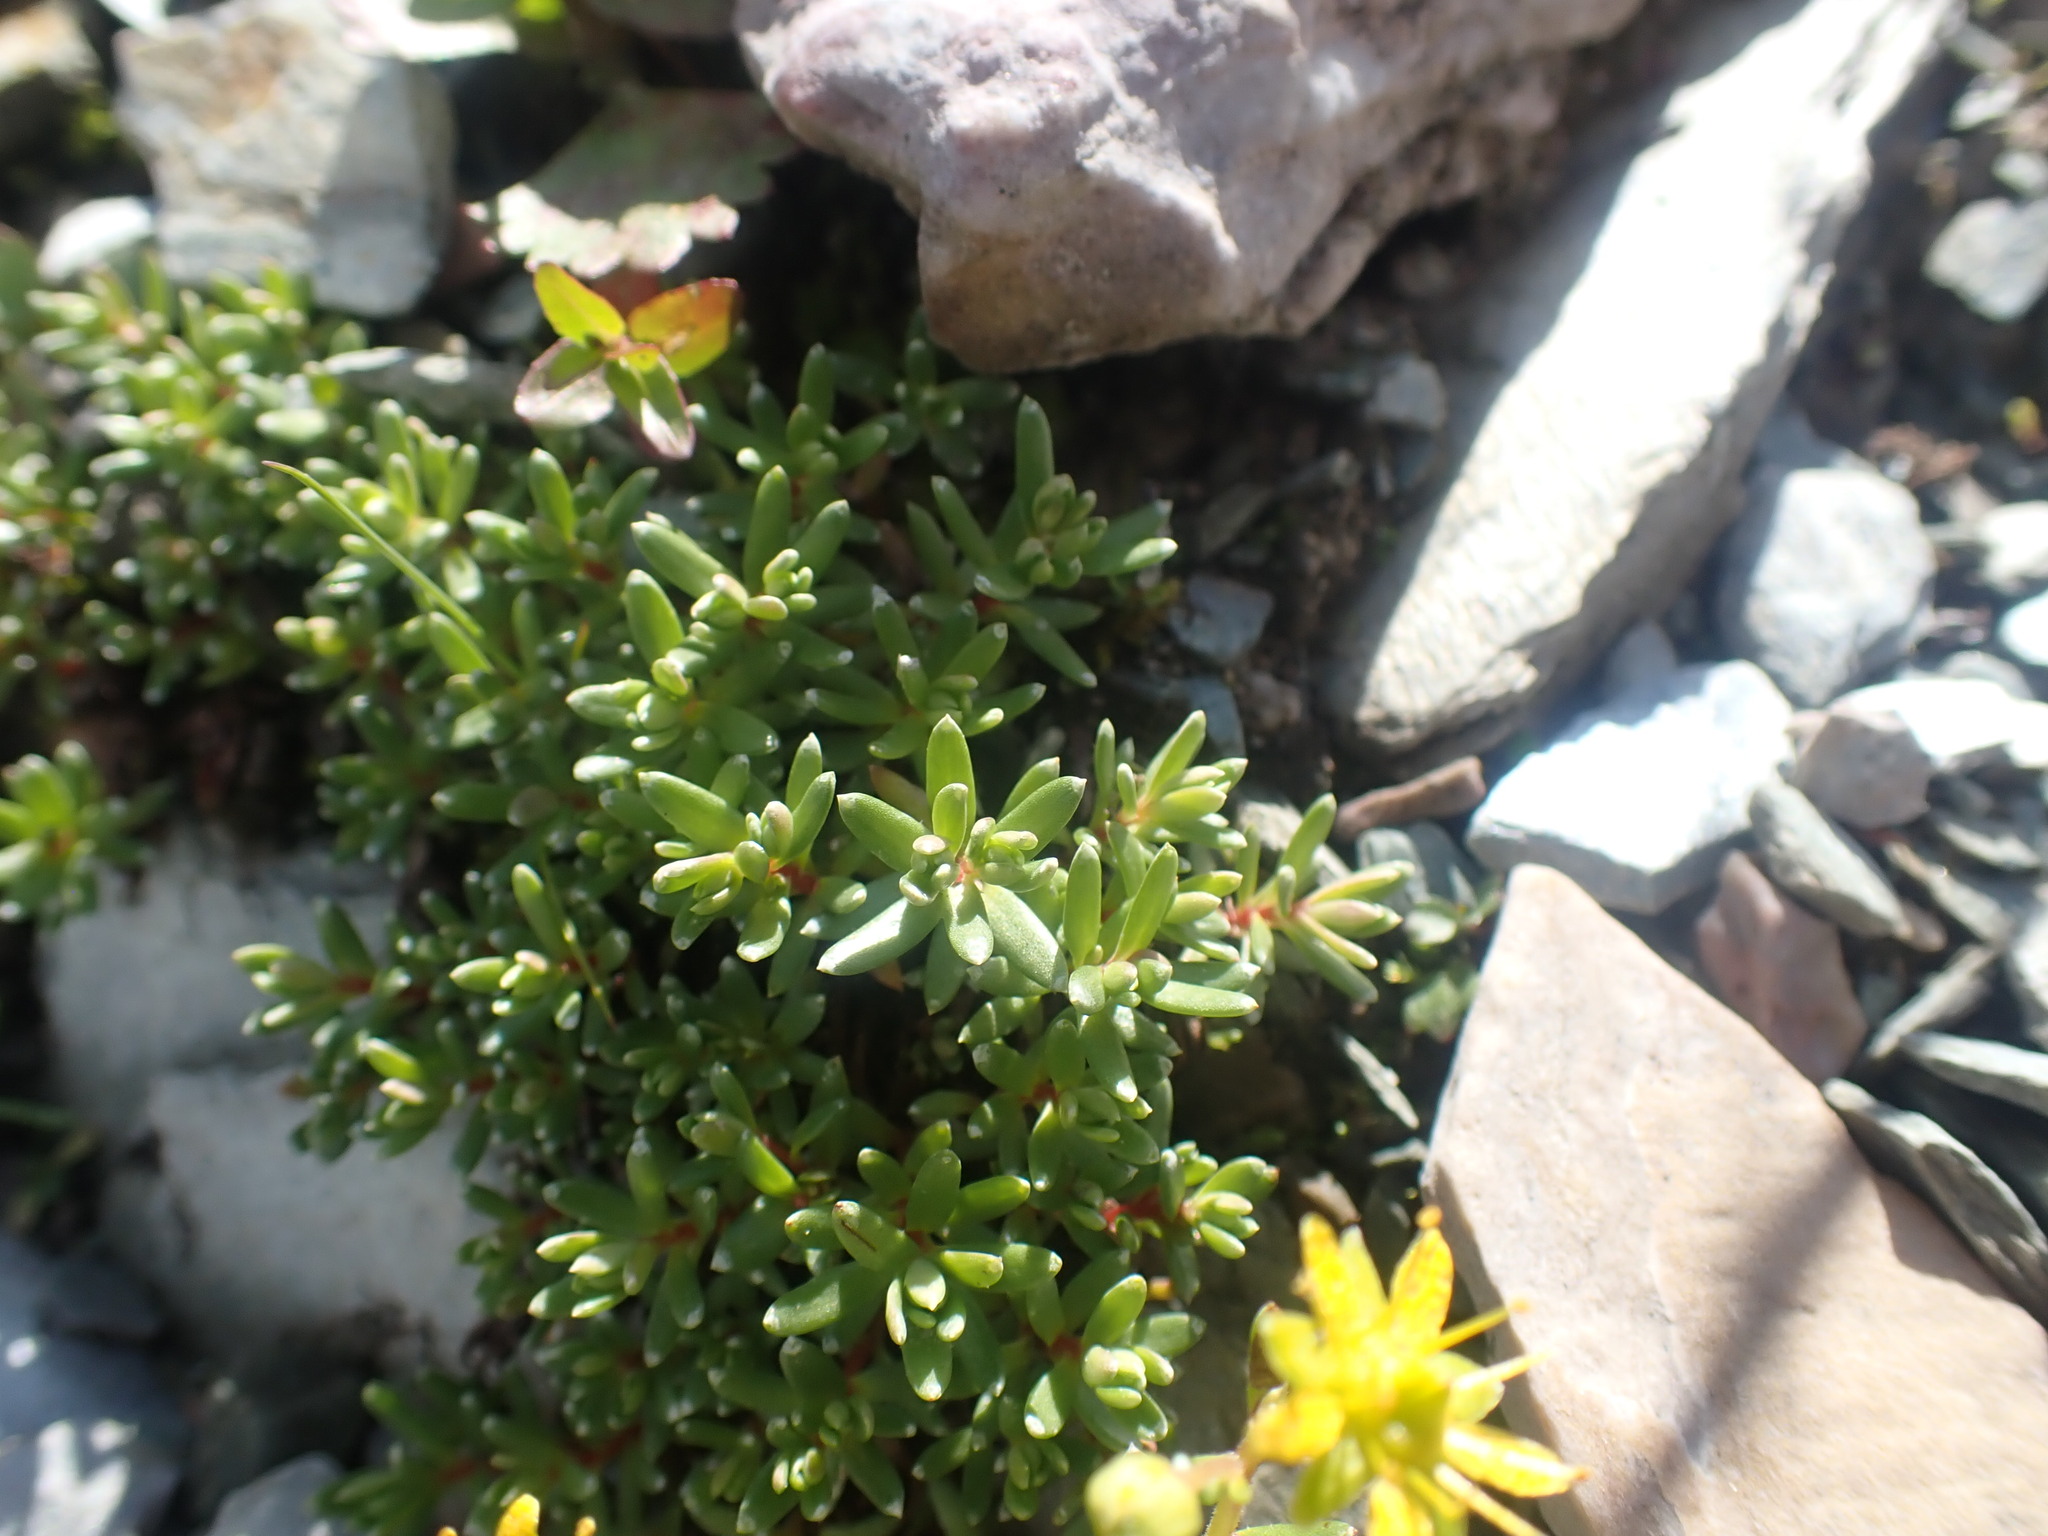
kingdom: Plantae
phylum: Tracheophyta
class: Magnoliopsida
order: Saxifragales
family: Saxifragaceae
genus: Saxifraga
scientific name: Saxifraga aizoides
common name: Yellow mountain saxifrage
